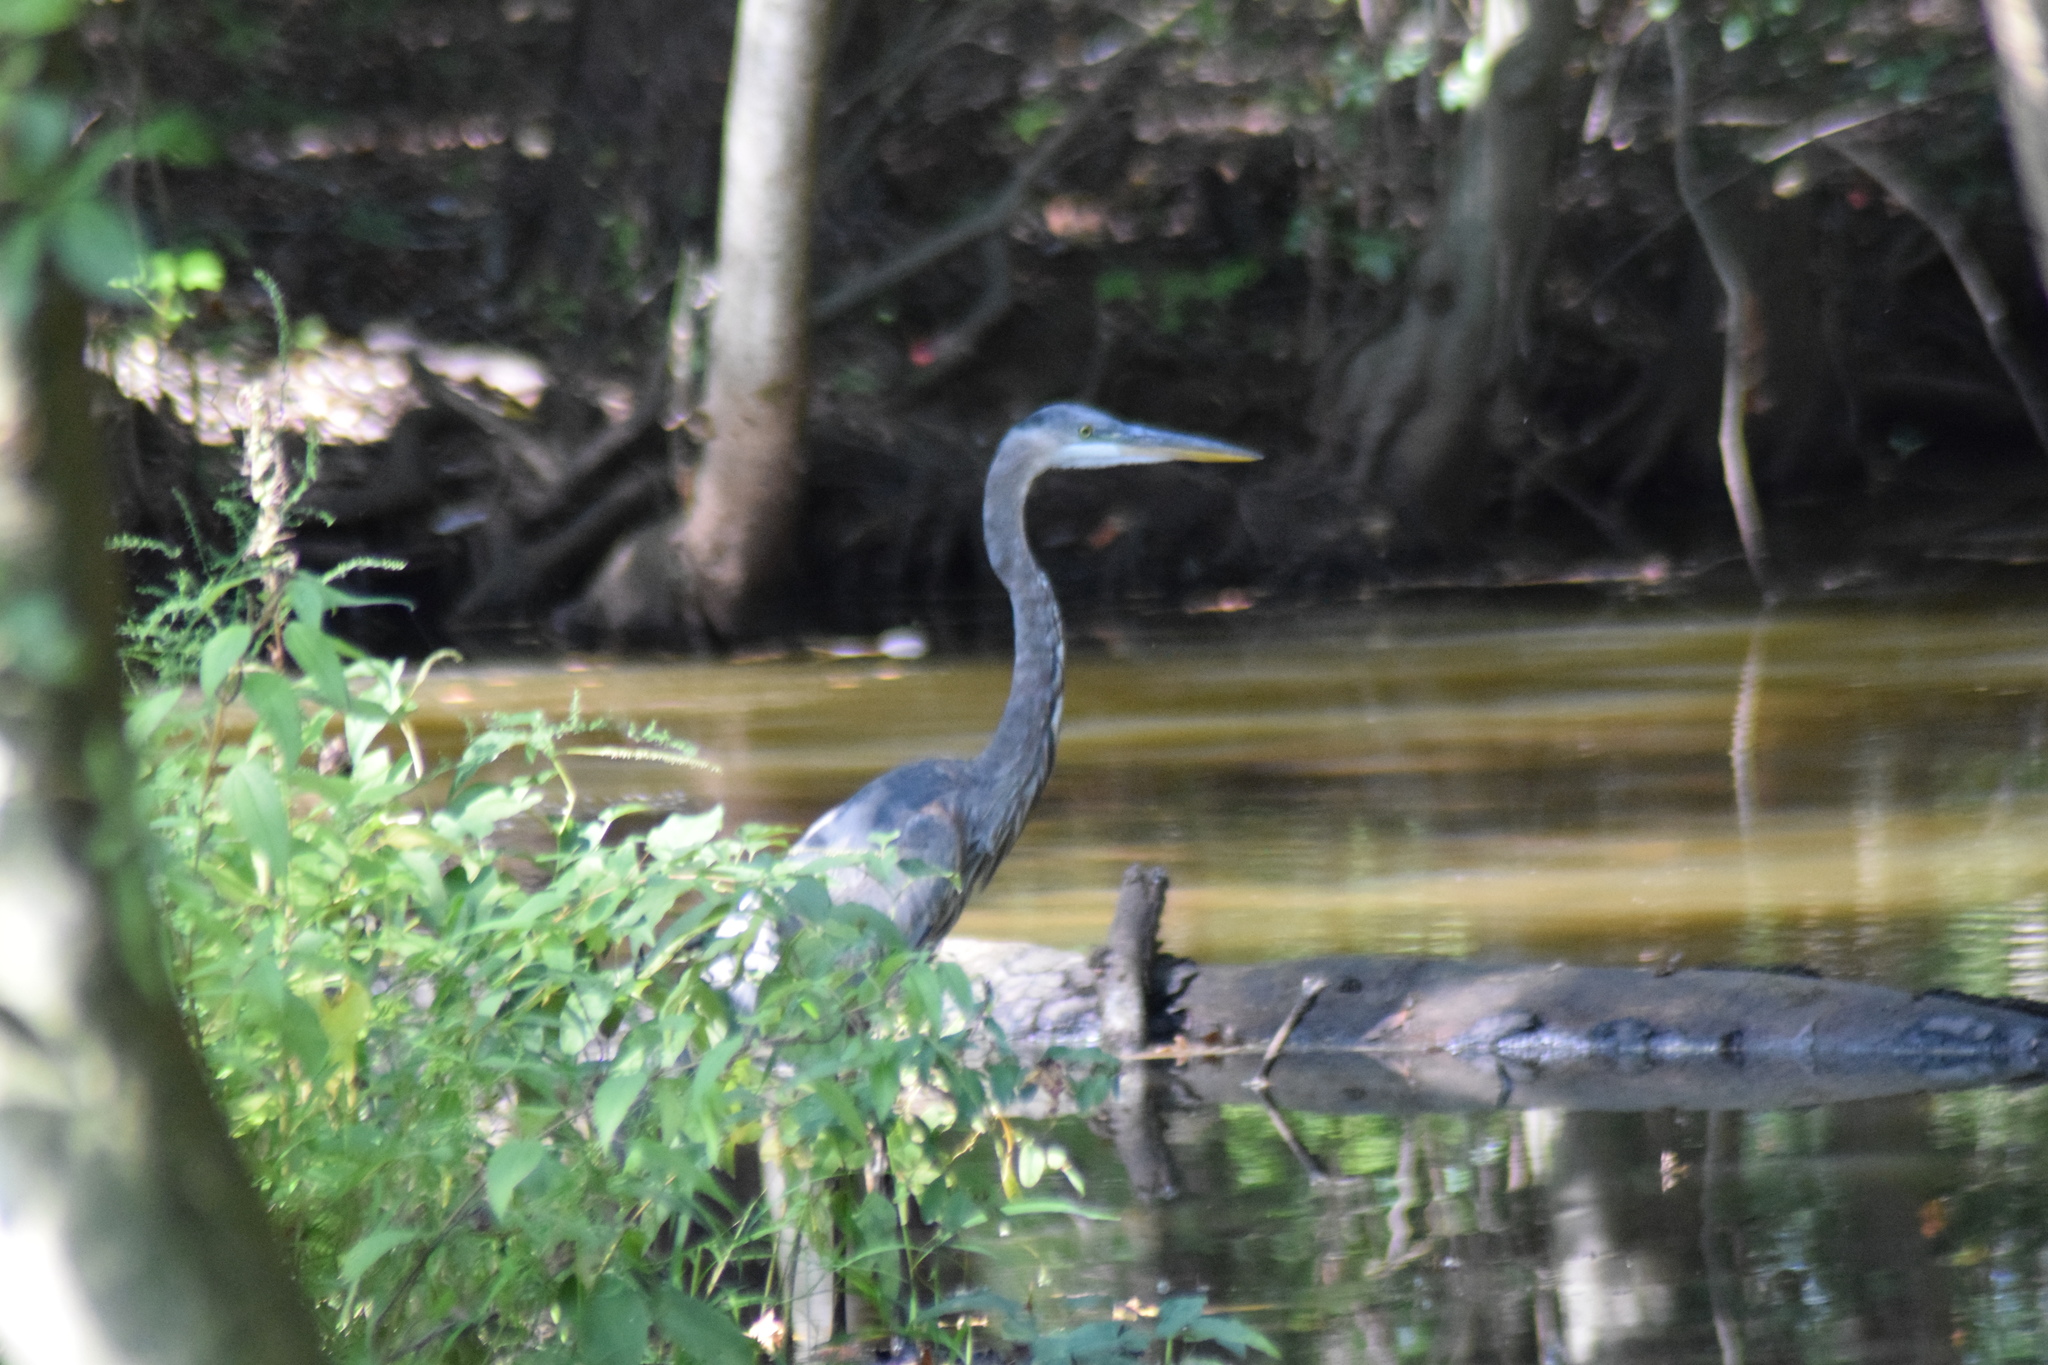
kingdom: Animalia
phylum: Chordata
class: Aves
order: Pelecaniformes
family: Ardeidae
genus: Ardea
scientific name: Ardea herodias
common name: Great blue heron
